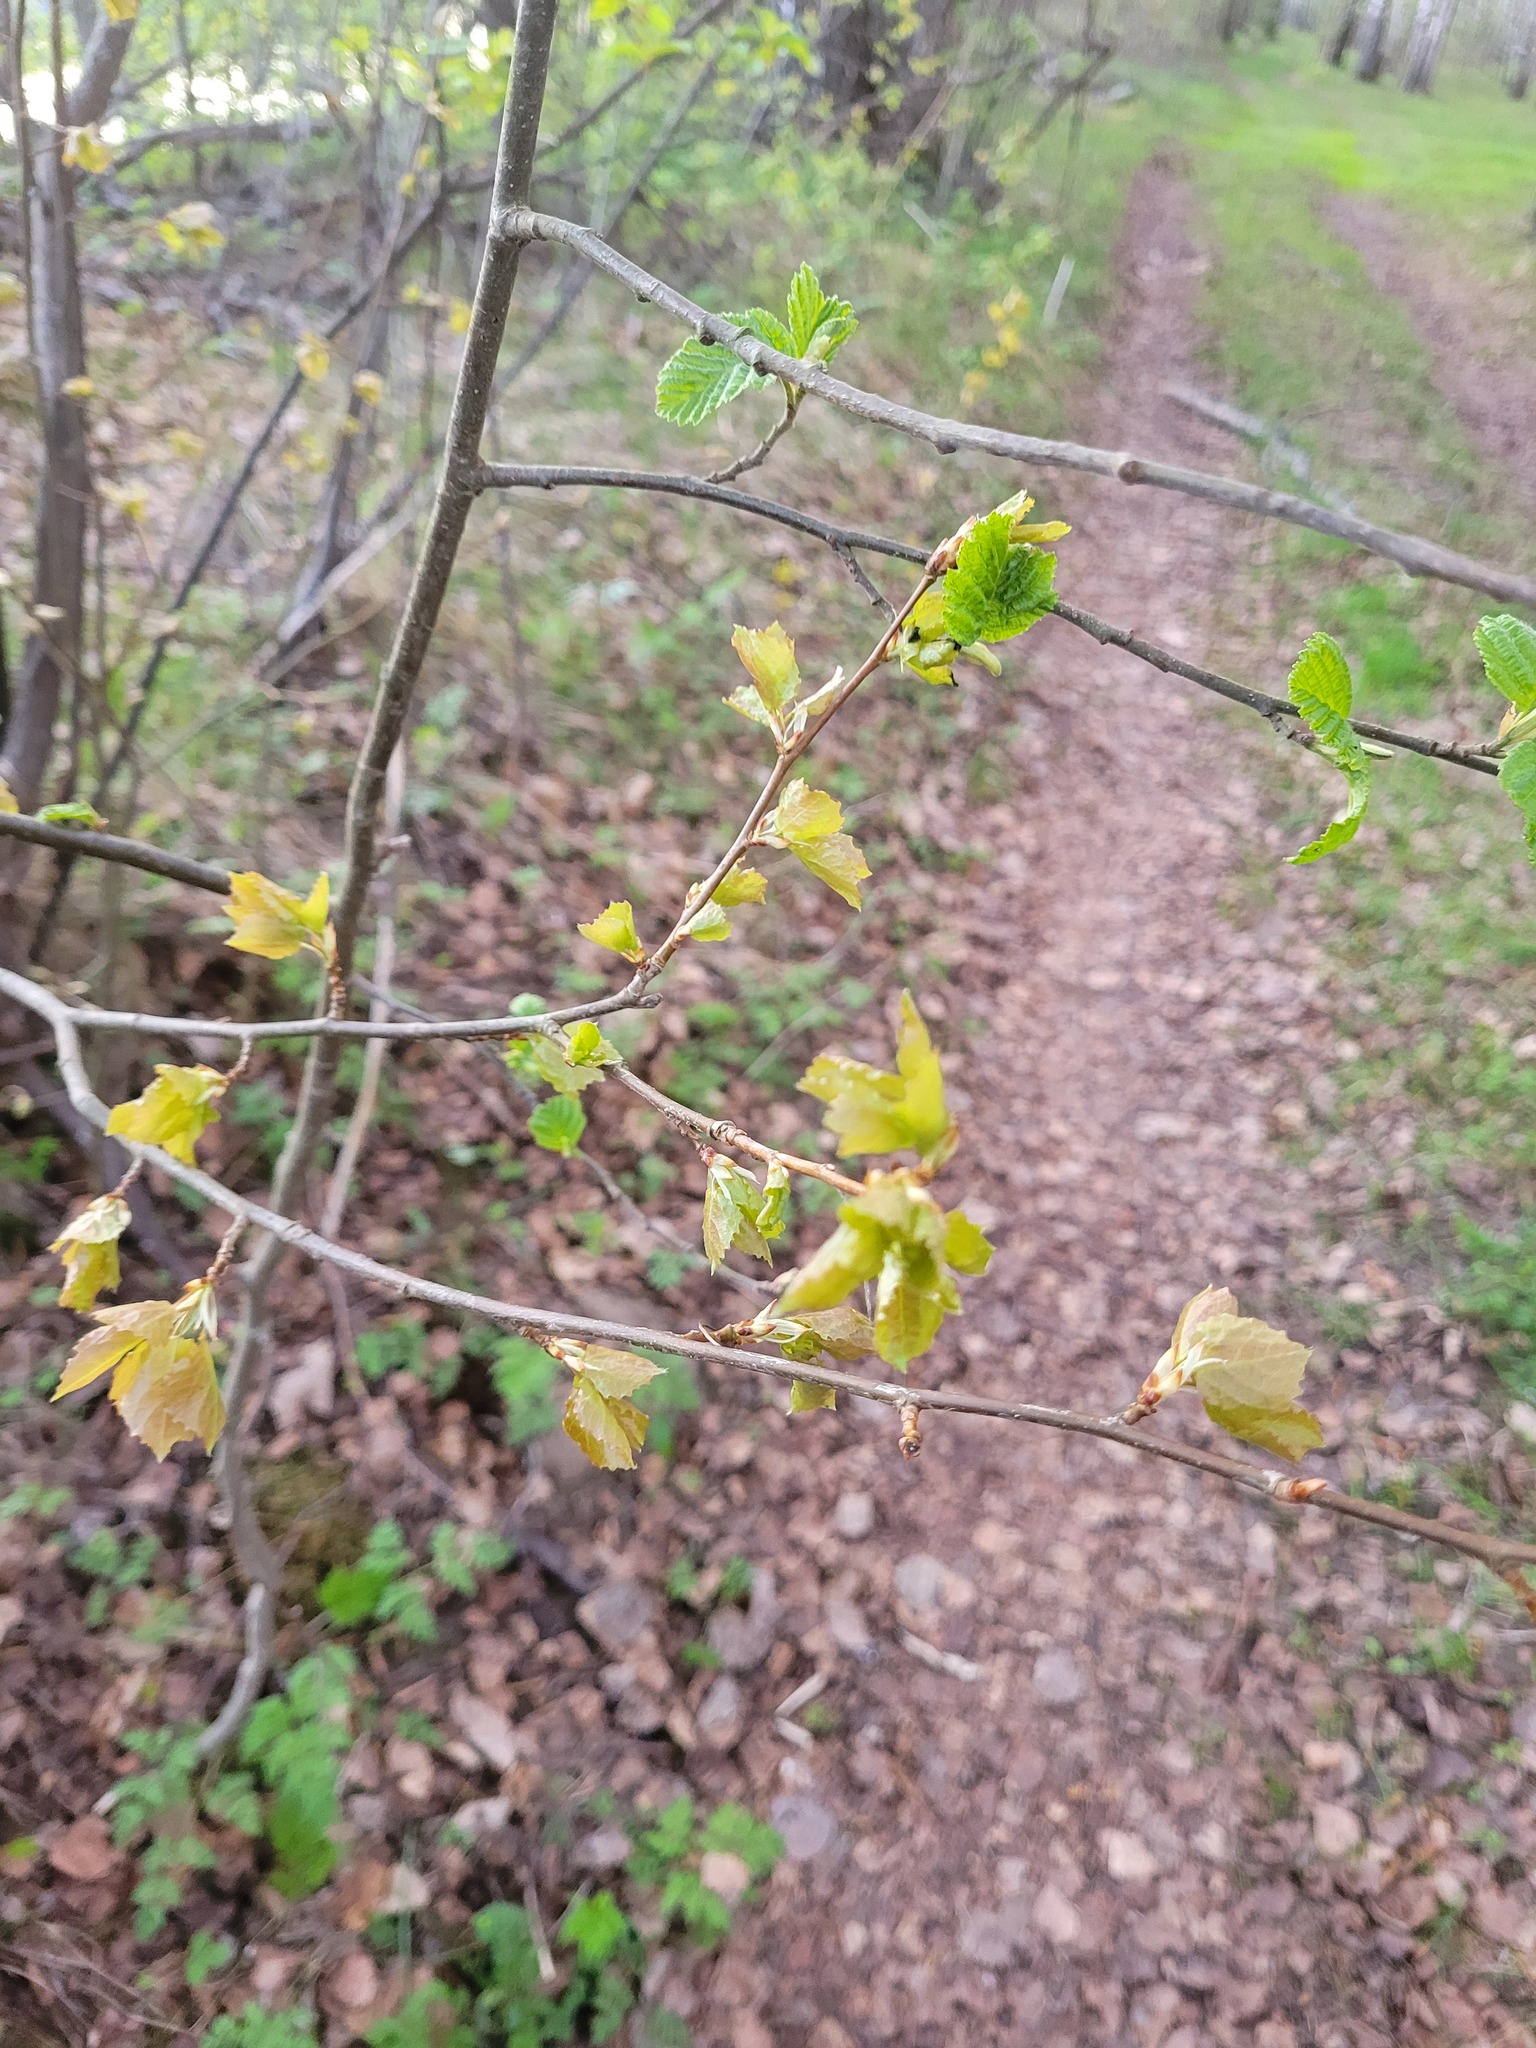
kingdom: Plantae
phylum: Tracheophyta
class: Magnoliopsida
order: Malpighiales
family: Salicaceae
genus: Populus
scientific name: Populus tremula
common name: European aspen
